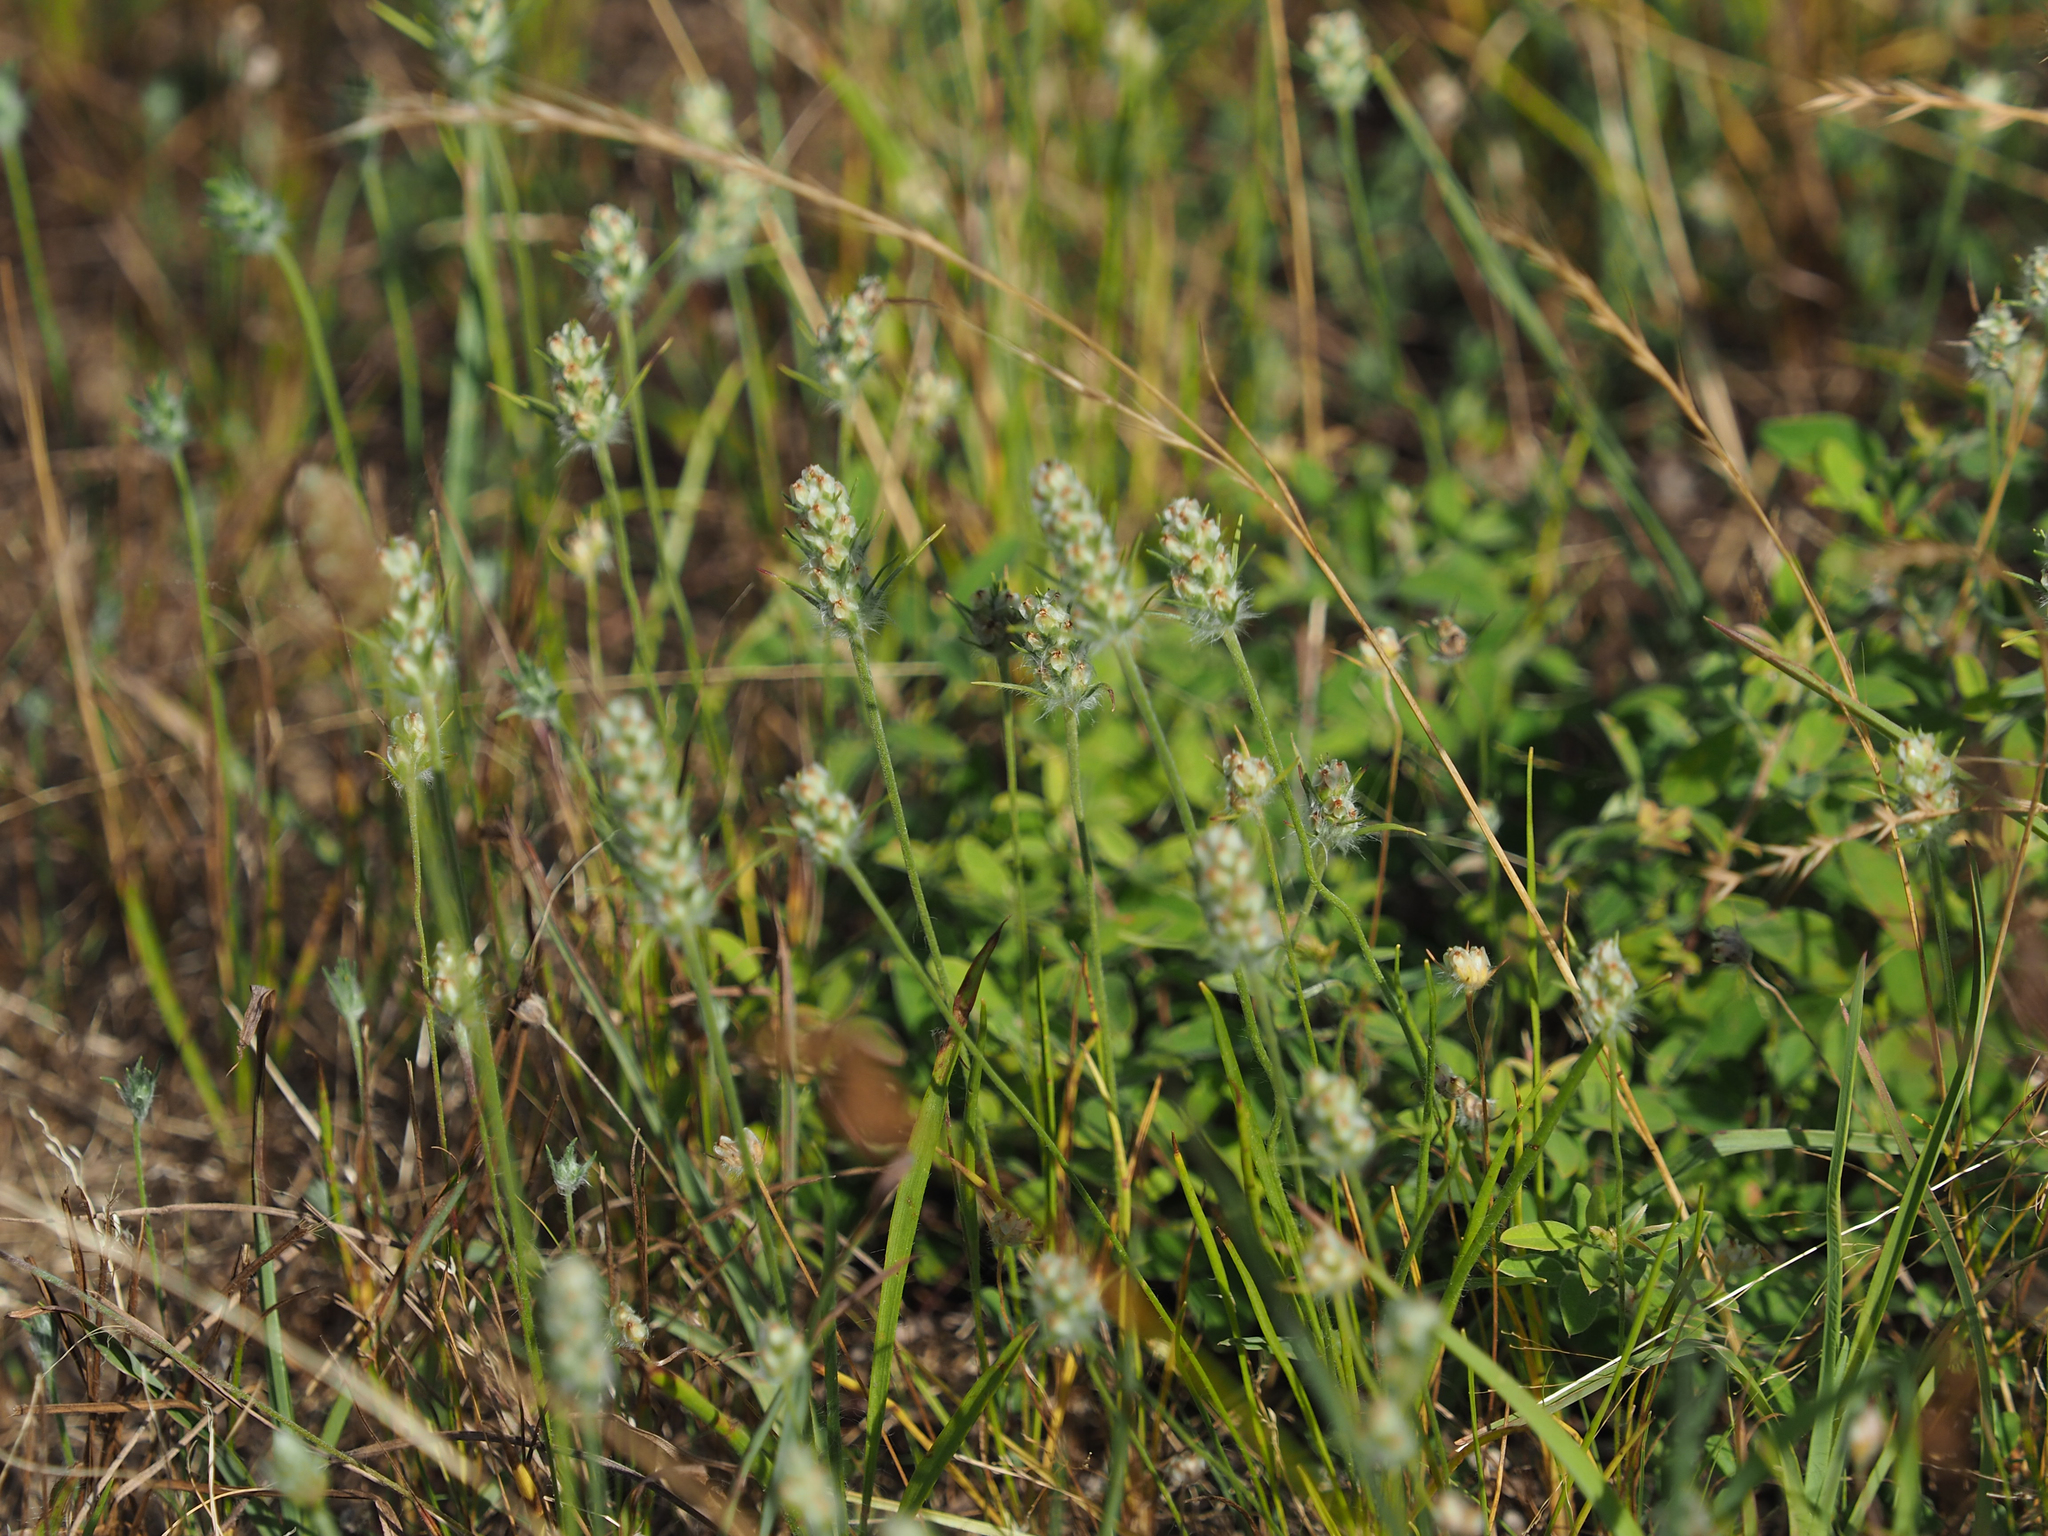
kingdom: Plantae
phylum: Tracheophyta
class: Magnoliopsida
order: Lamiales
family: Plantaginaceae
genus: Plantago
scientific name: Plantago aristata
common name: Bracted plantain
